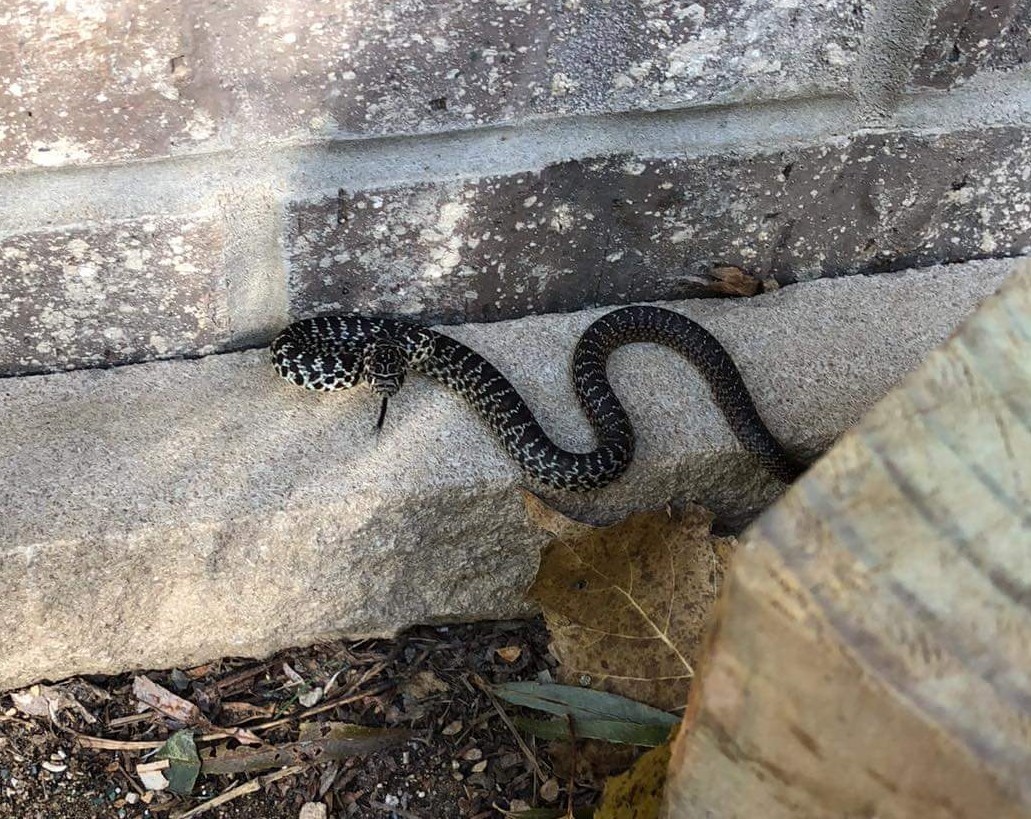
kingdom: Animalia
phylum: Chordata
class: Squamata
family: Colubridae
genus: Coluber
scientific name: Coluber constrictor
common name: Eastern racer
